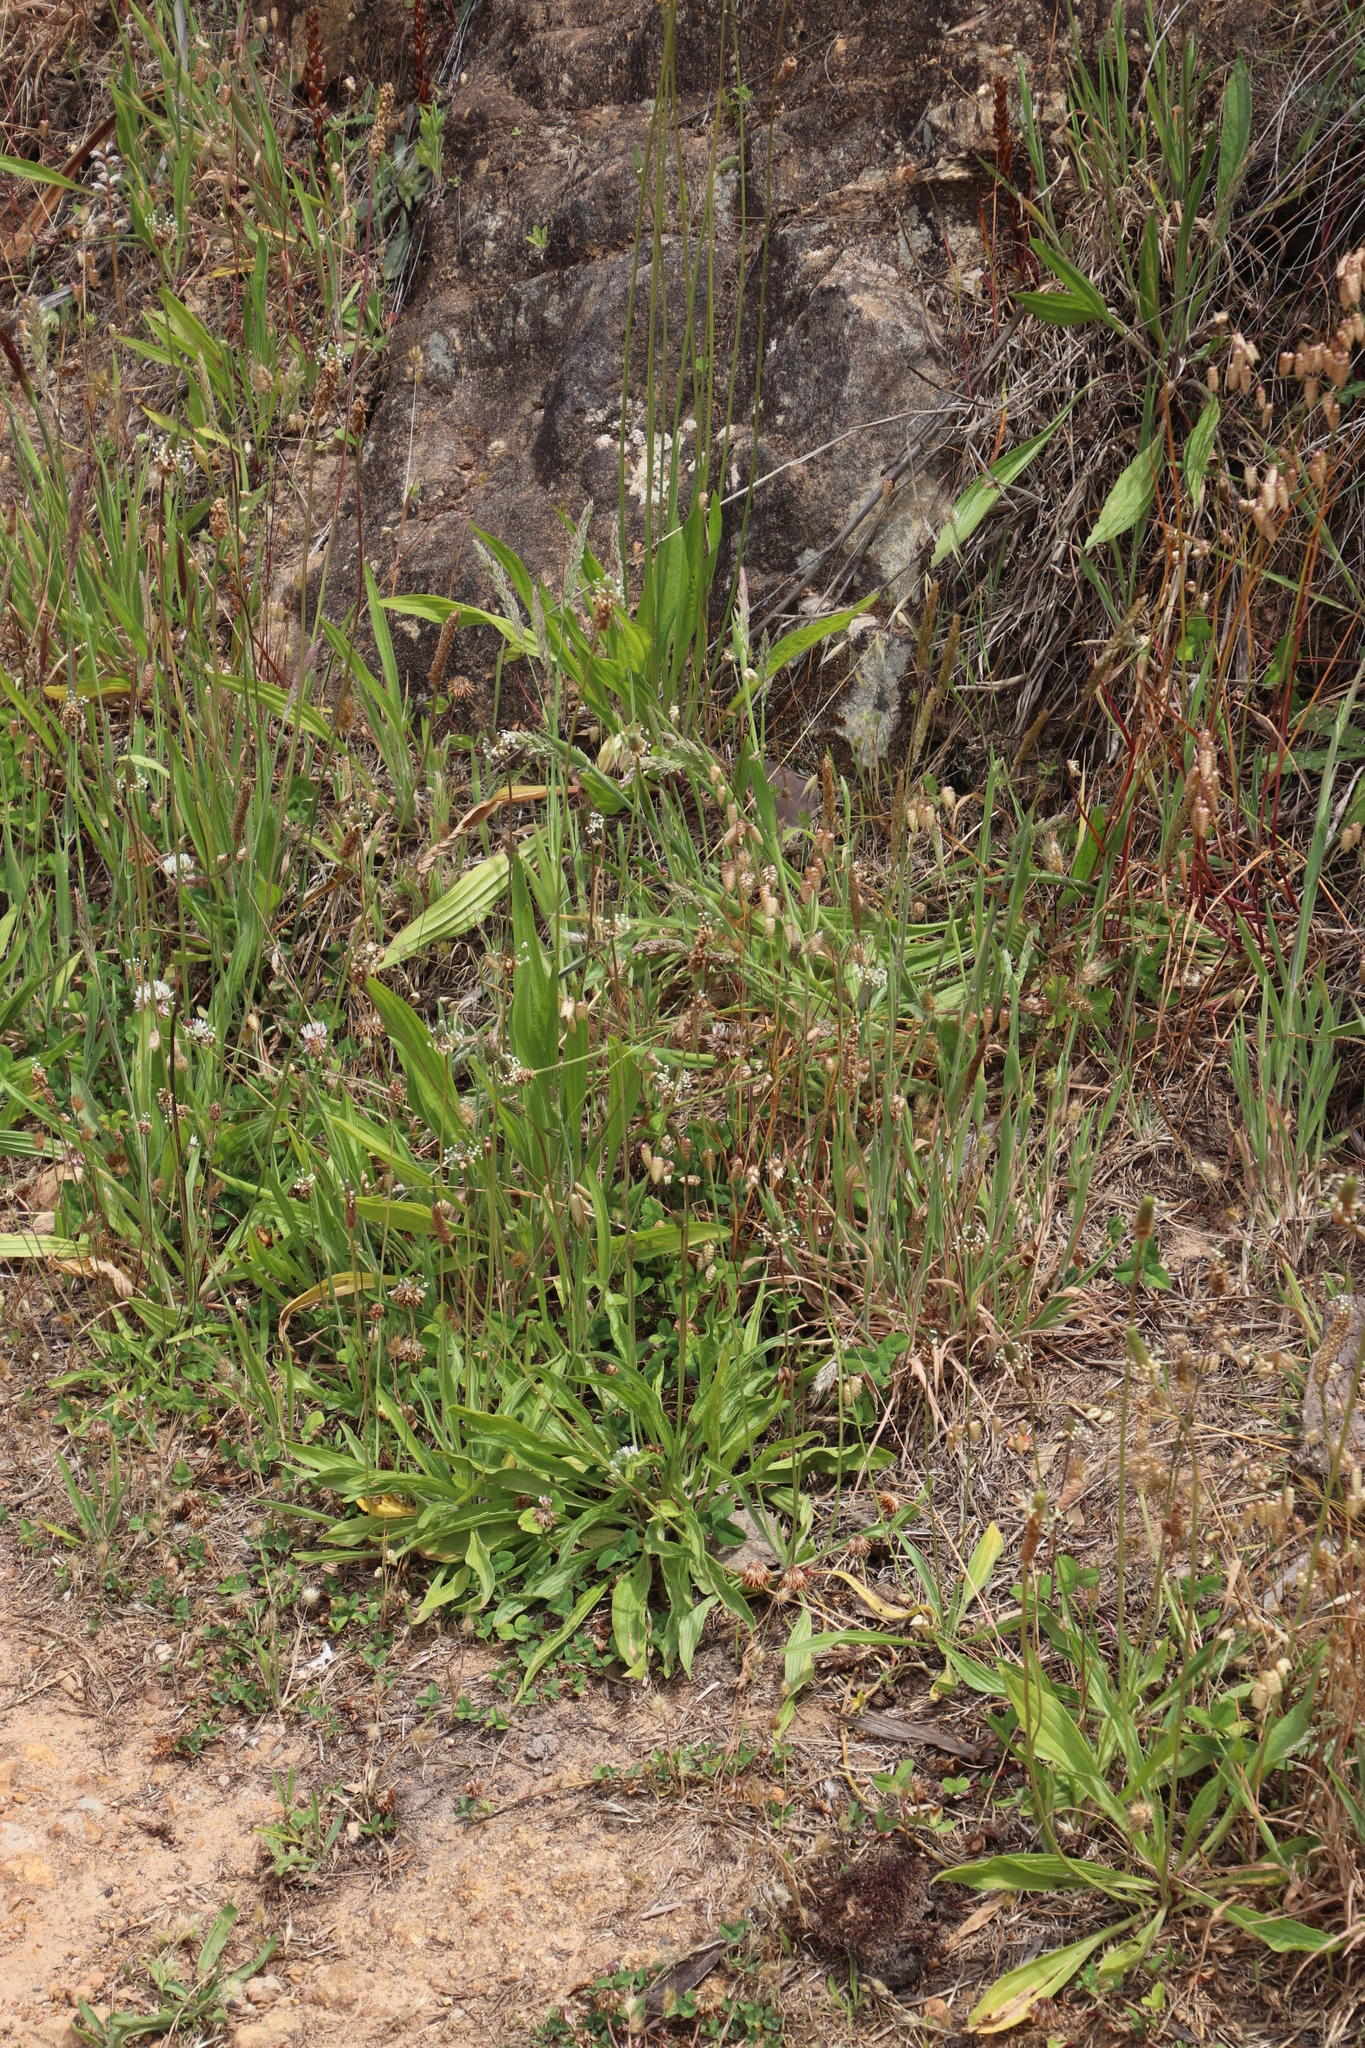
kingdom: Plantae
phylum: Tracheophyta
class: Magnoliopsida
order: Lamiales
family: Plantaginaceae
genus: Plantago
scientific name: Plantago lanceolata
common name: Ribwort plantain
